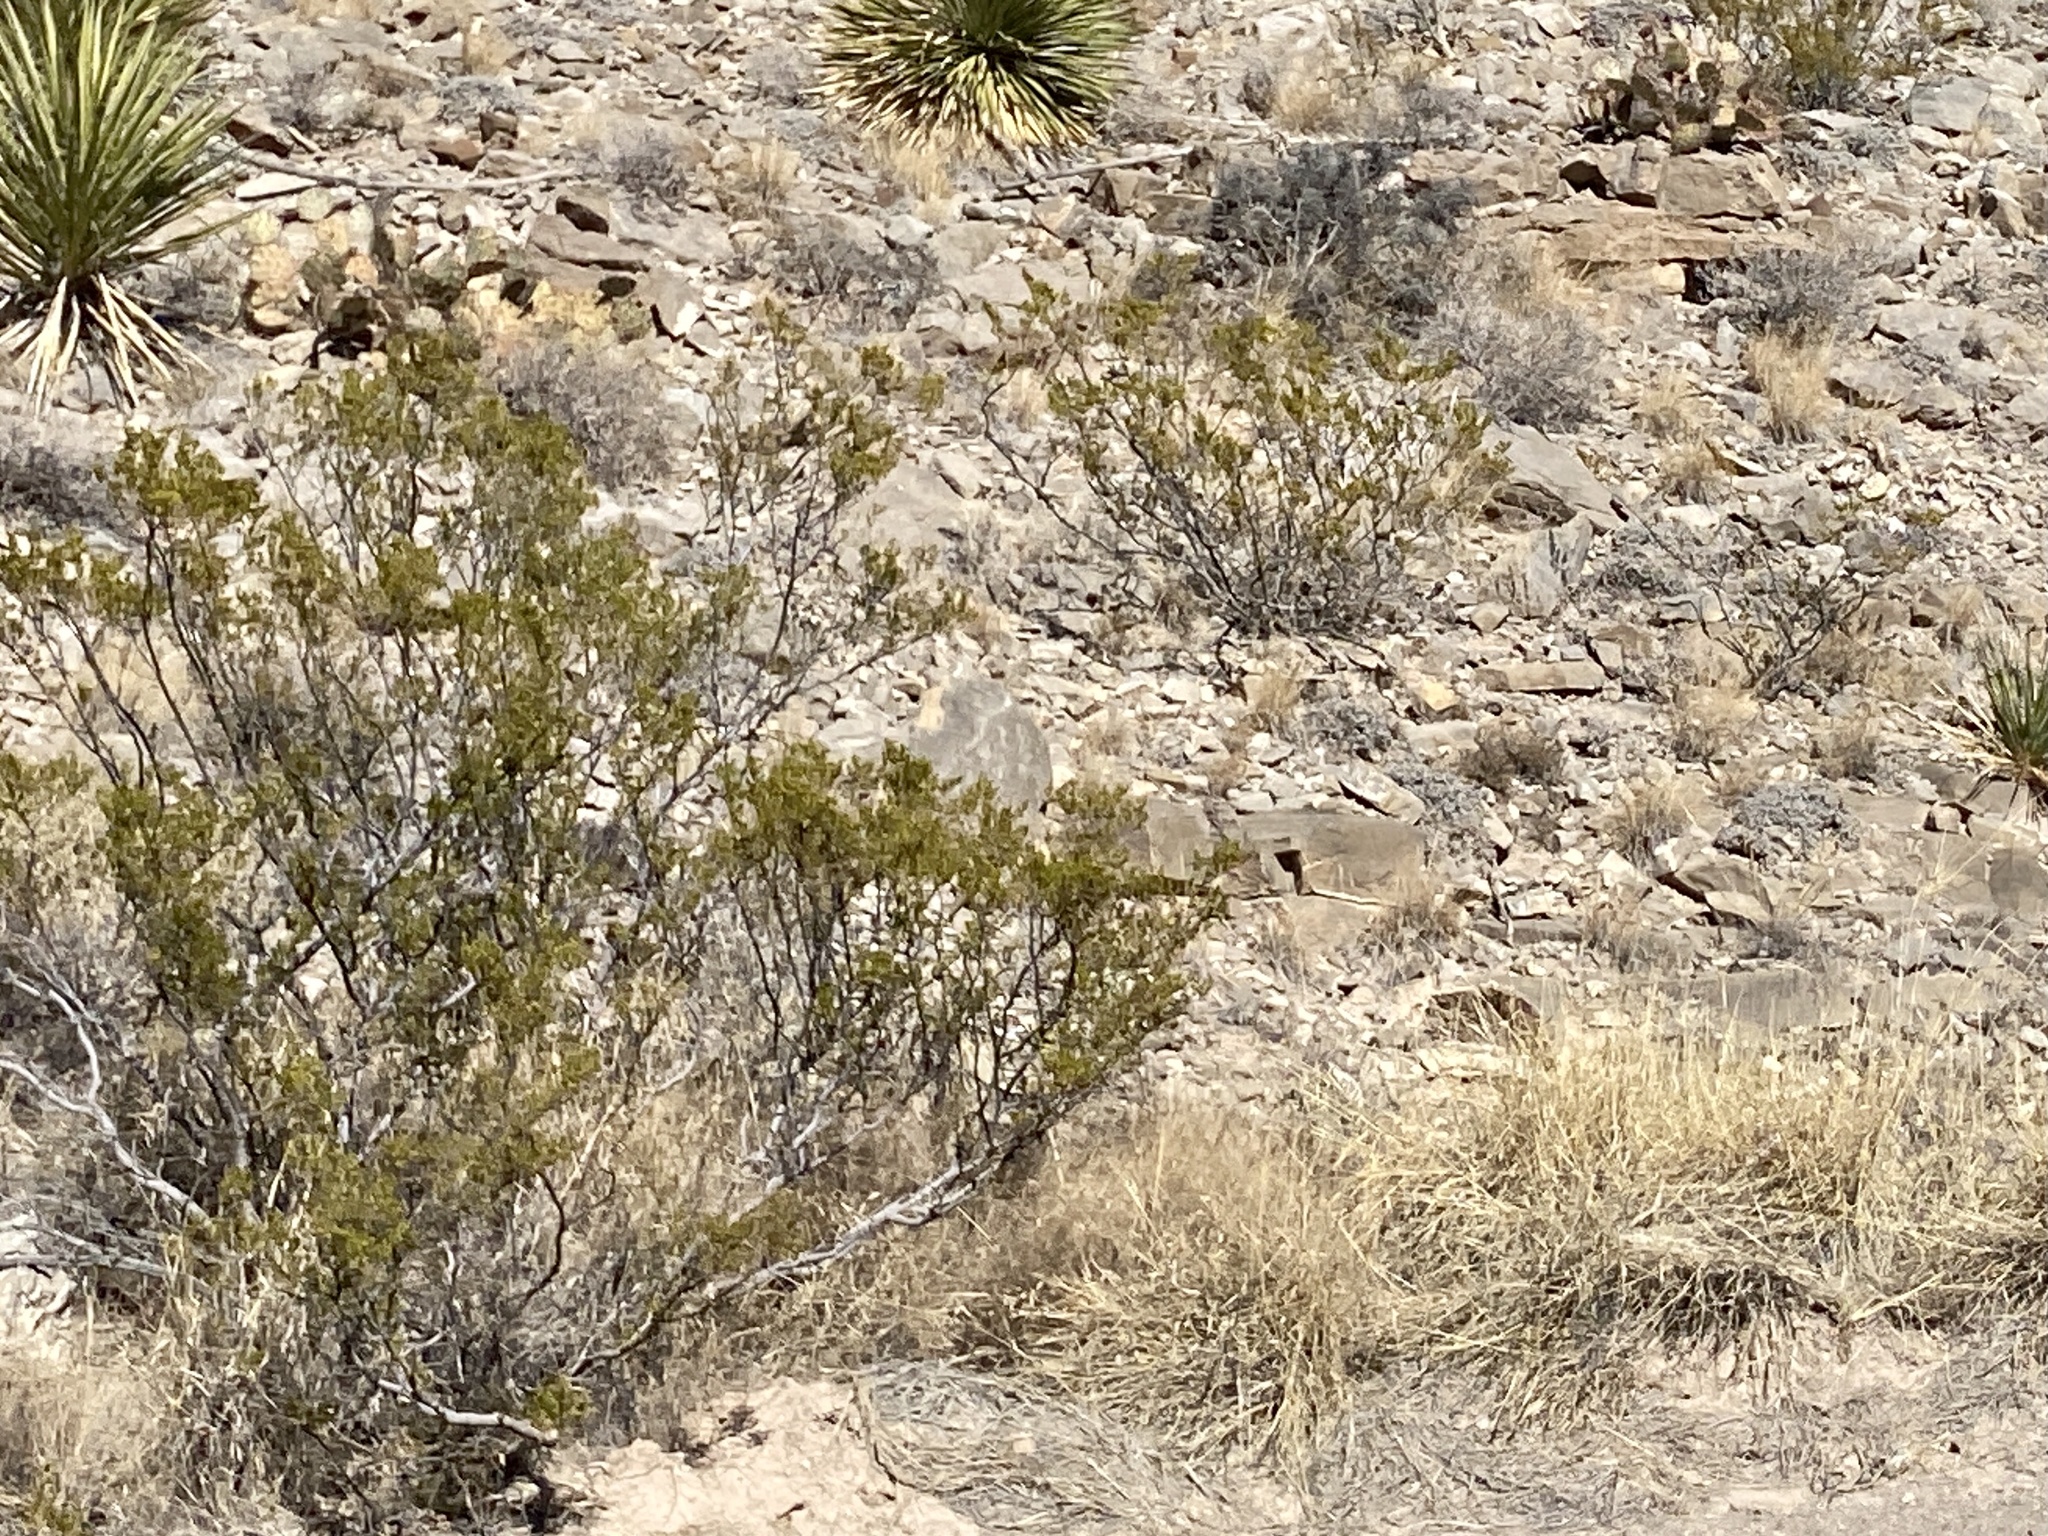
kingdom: Plantae
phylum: Tracheophyta
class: Magnoliopsida
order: Zygophyllales
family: Zygophyllaceae
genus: Larrea
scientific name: Larrea tridentata
